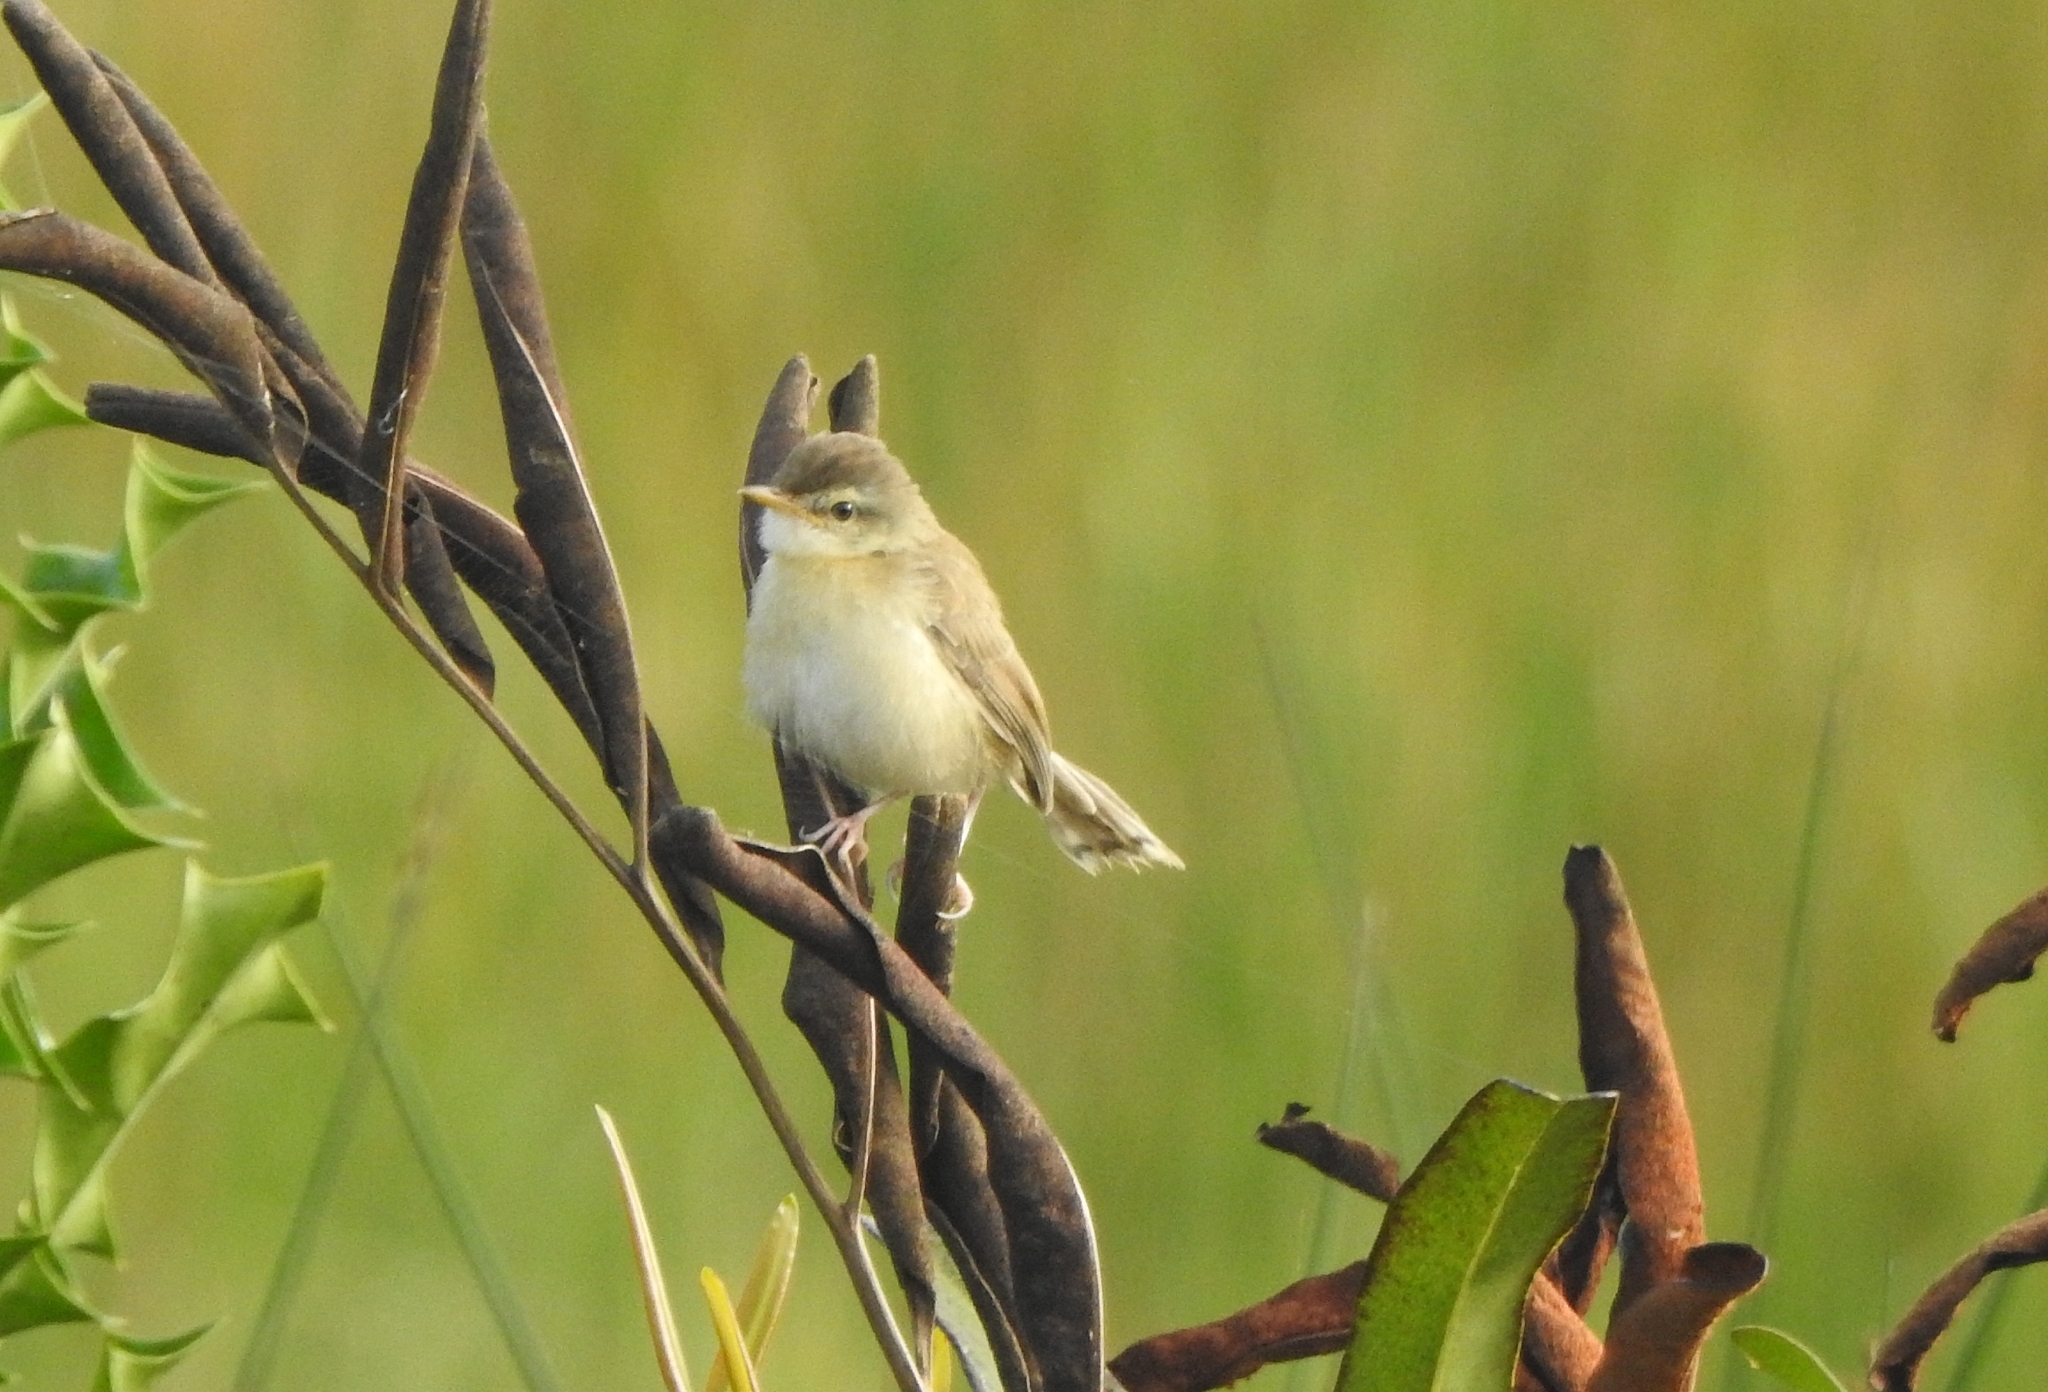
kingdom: Animalia
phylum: Chordata
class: Aves
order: Passeriformes
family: Cisticolidae
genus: Prinia
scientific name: Prinia inornata
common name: Plain prinia
